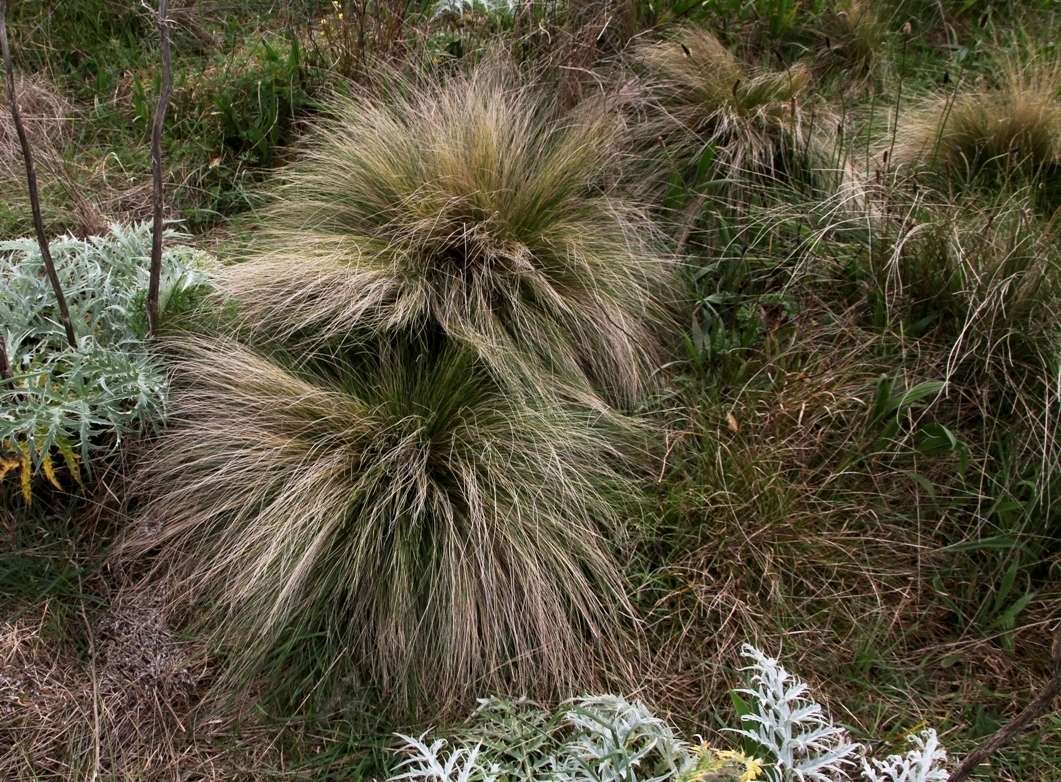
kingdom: Plantae
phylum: Tracheophyta
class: Liliopsida
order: Poales
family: Poaceae
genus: Nassella
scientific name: Nassella trichotoma
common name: Serrated tussock grass
